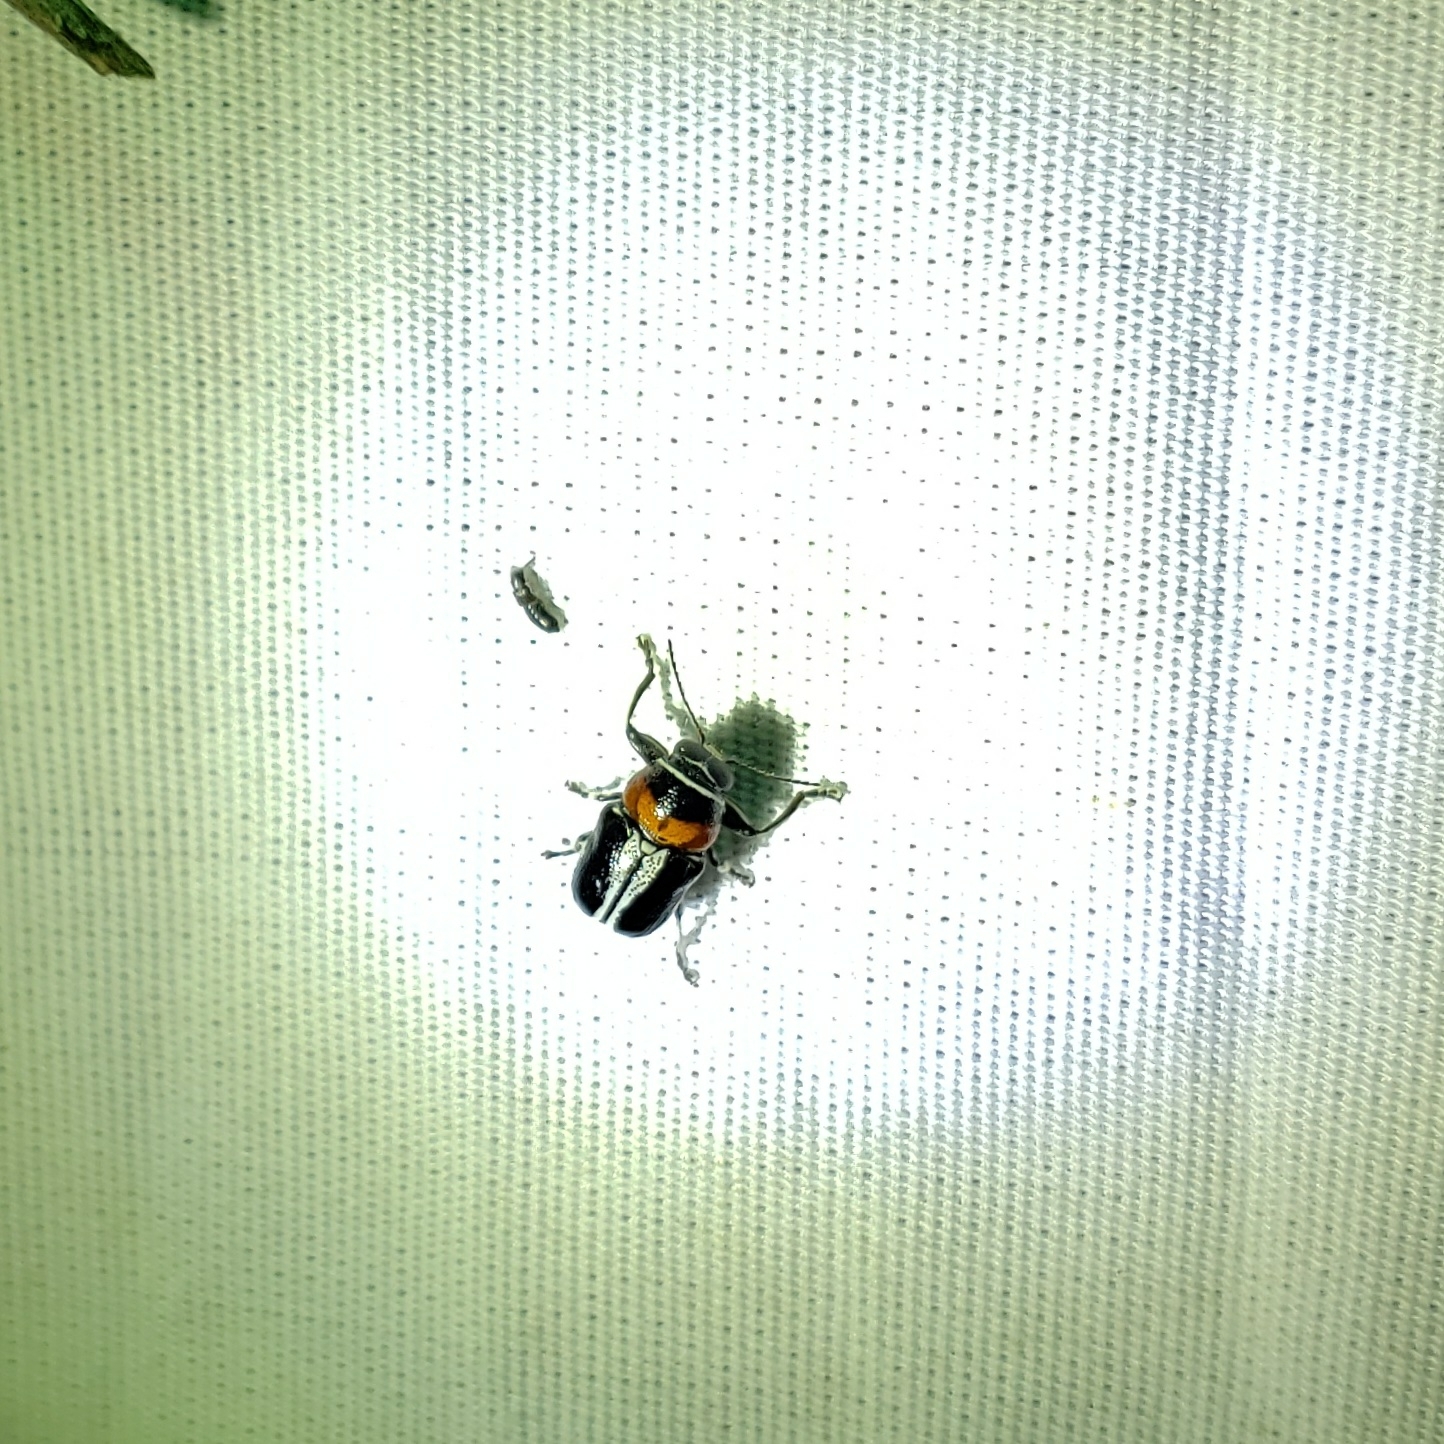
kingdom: Animalia
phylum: Arthropoda
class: Insecta
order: Coleoptera
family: Chrysomelidae
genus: Griburius
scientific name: Griburius montezuma
